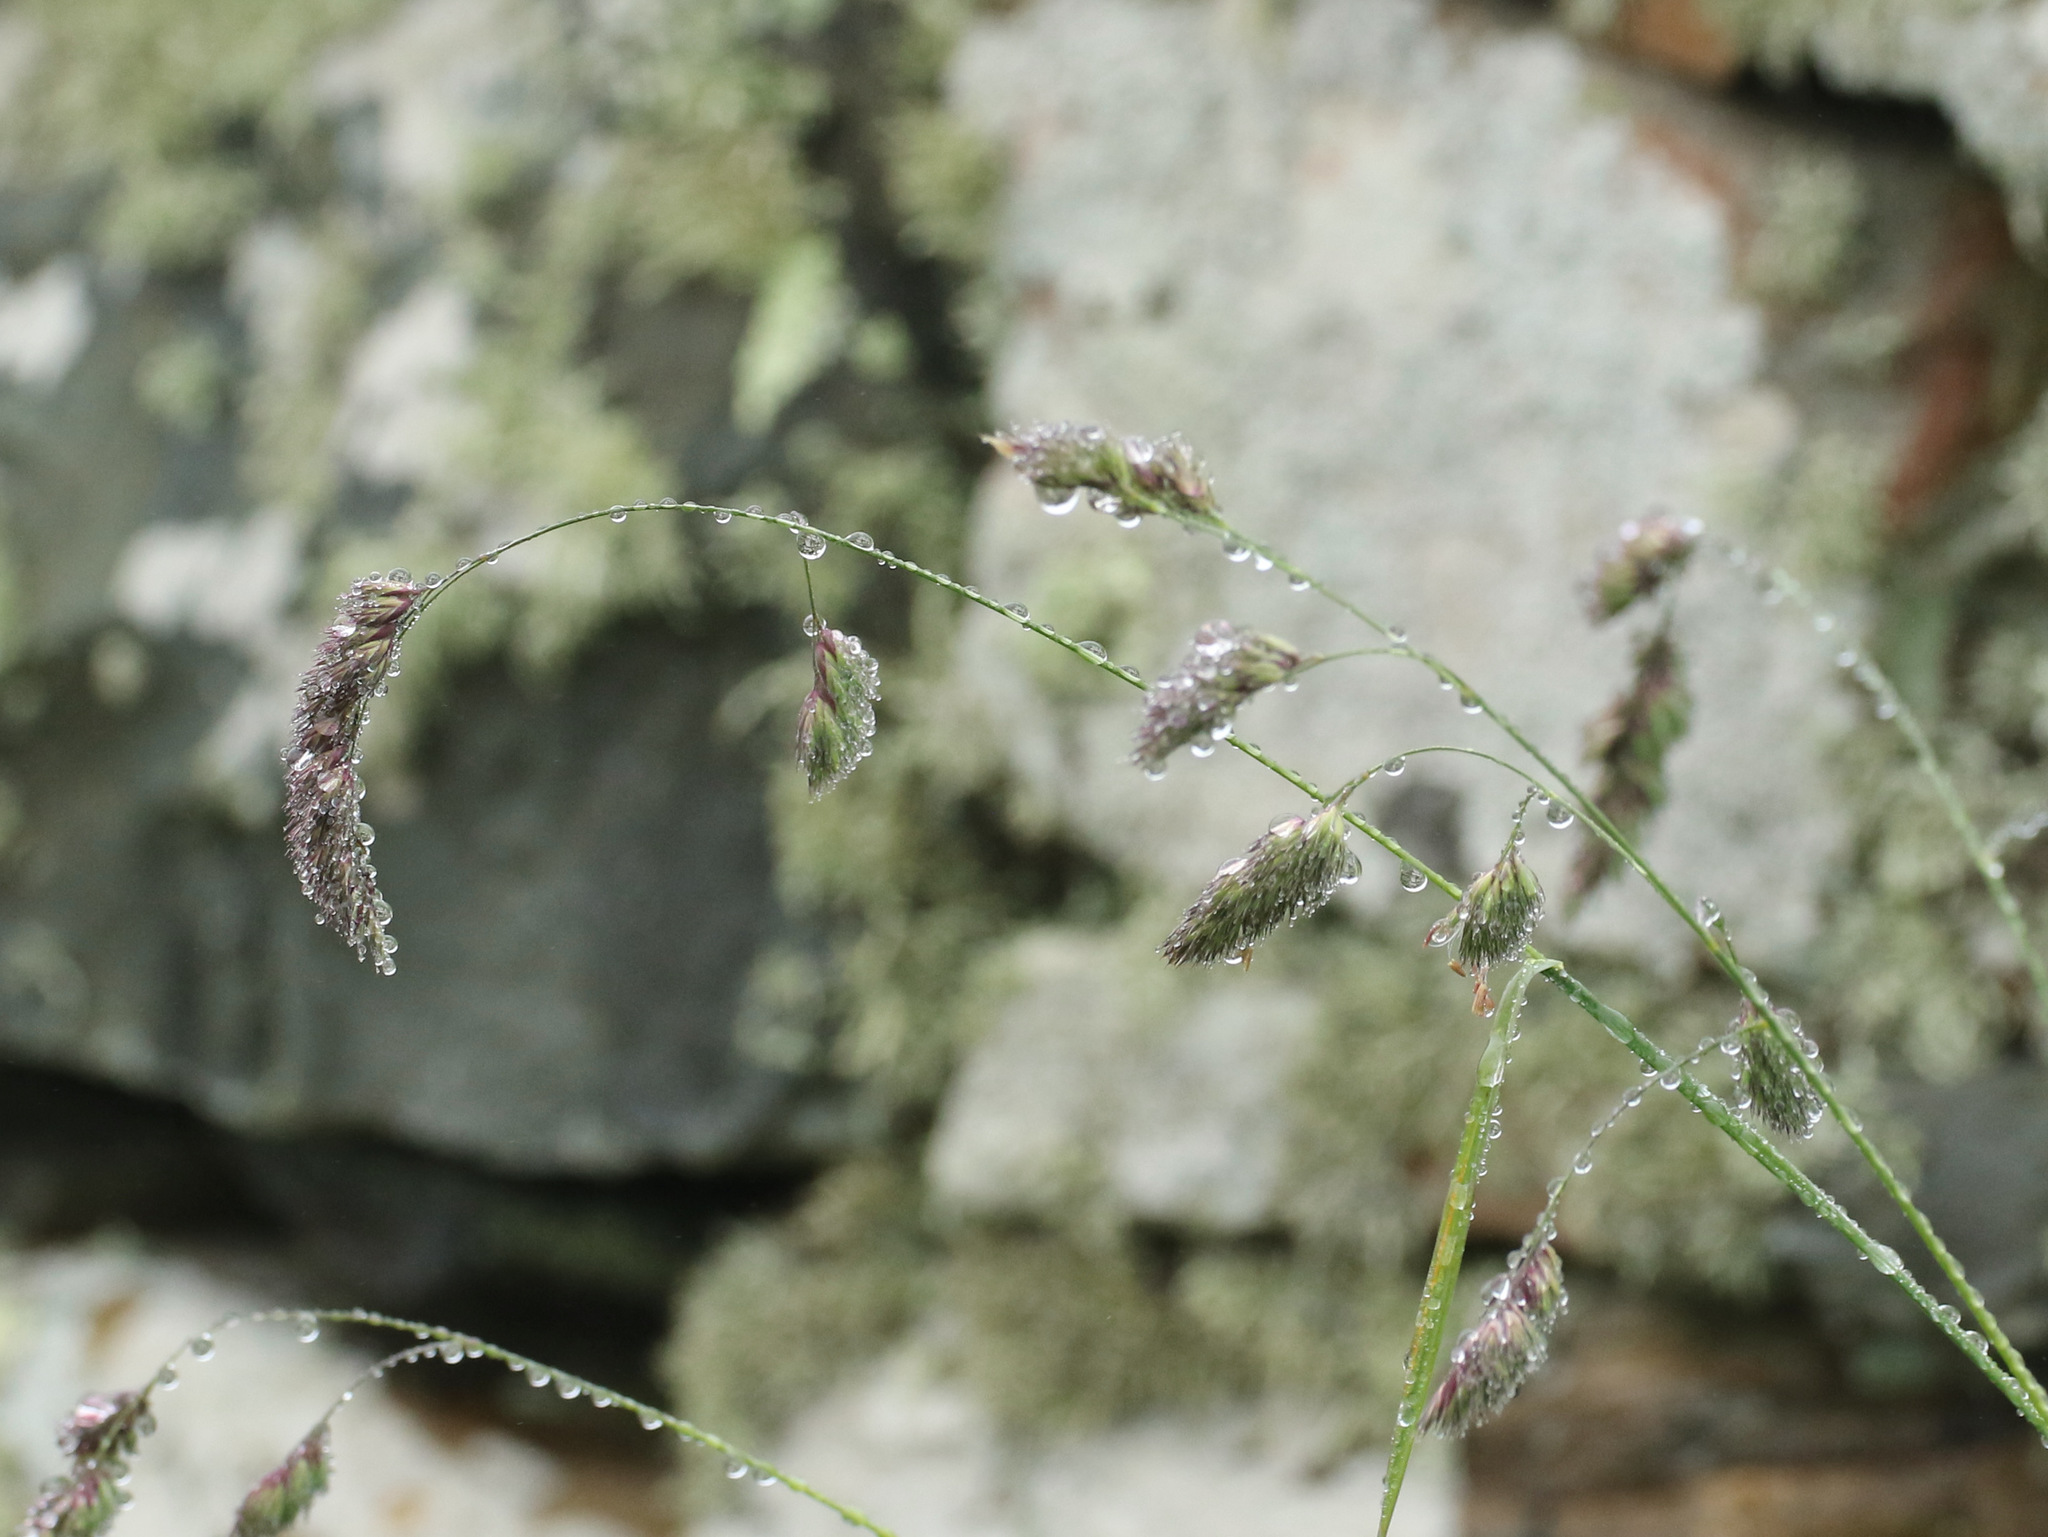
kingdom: Plantae
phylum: Tracheophyta
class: Liliopsida
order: Poales
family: Poaceae
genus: Dactylis
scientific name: Dactylis glomerata
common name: Orchardgrass
